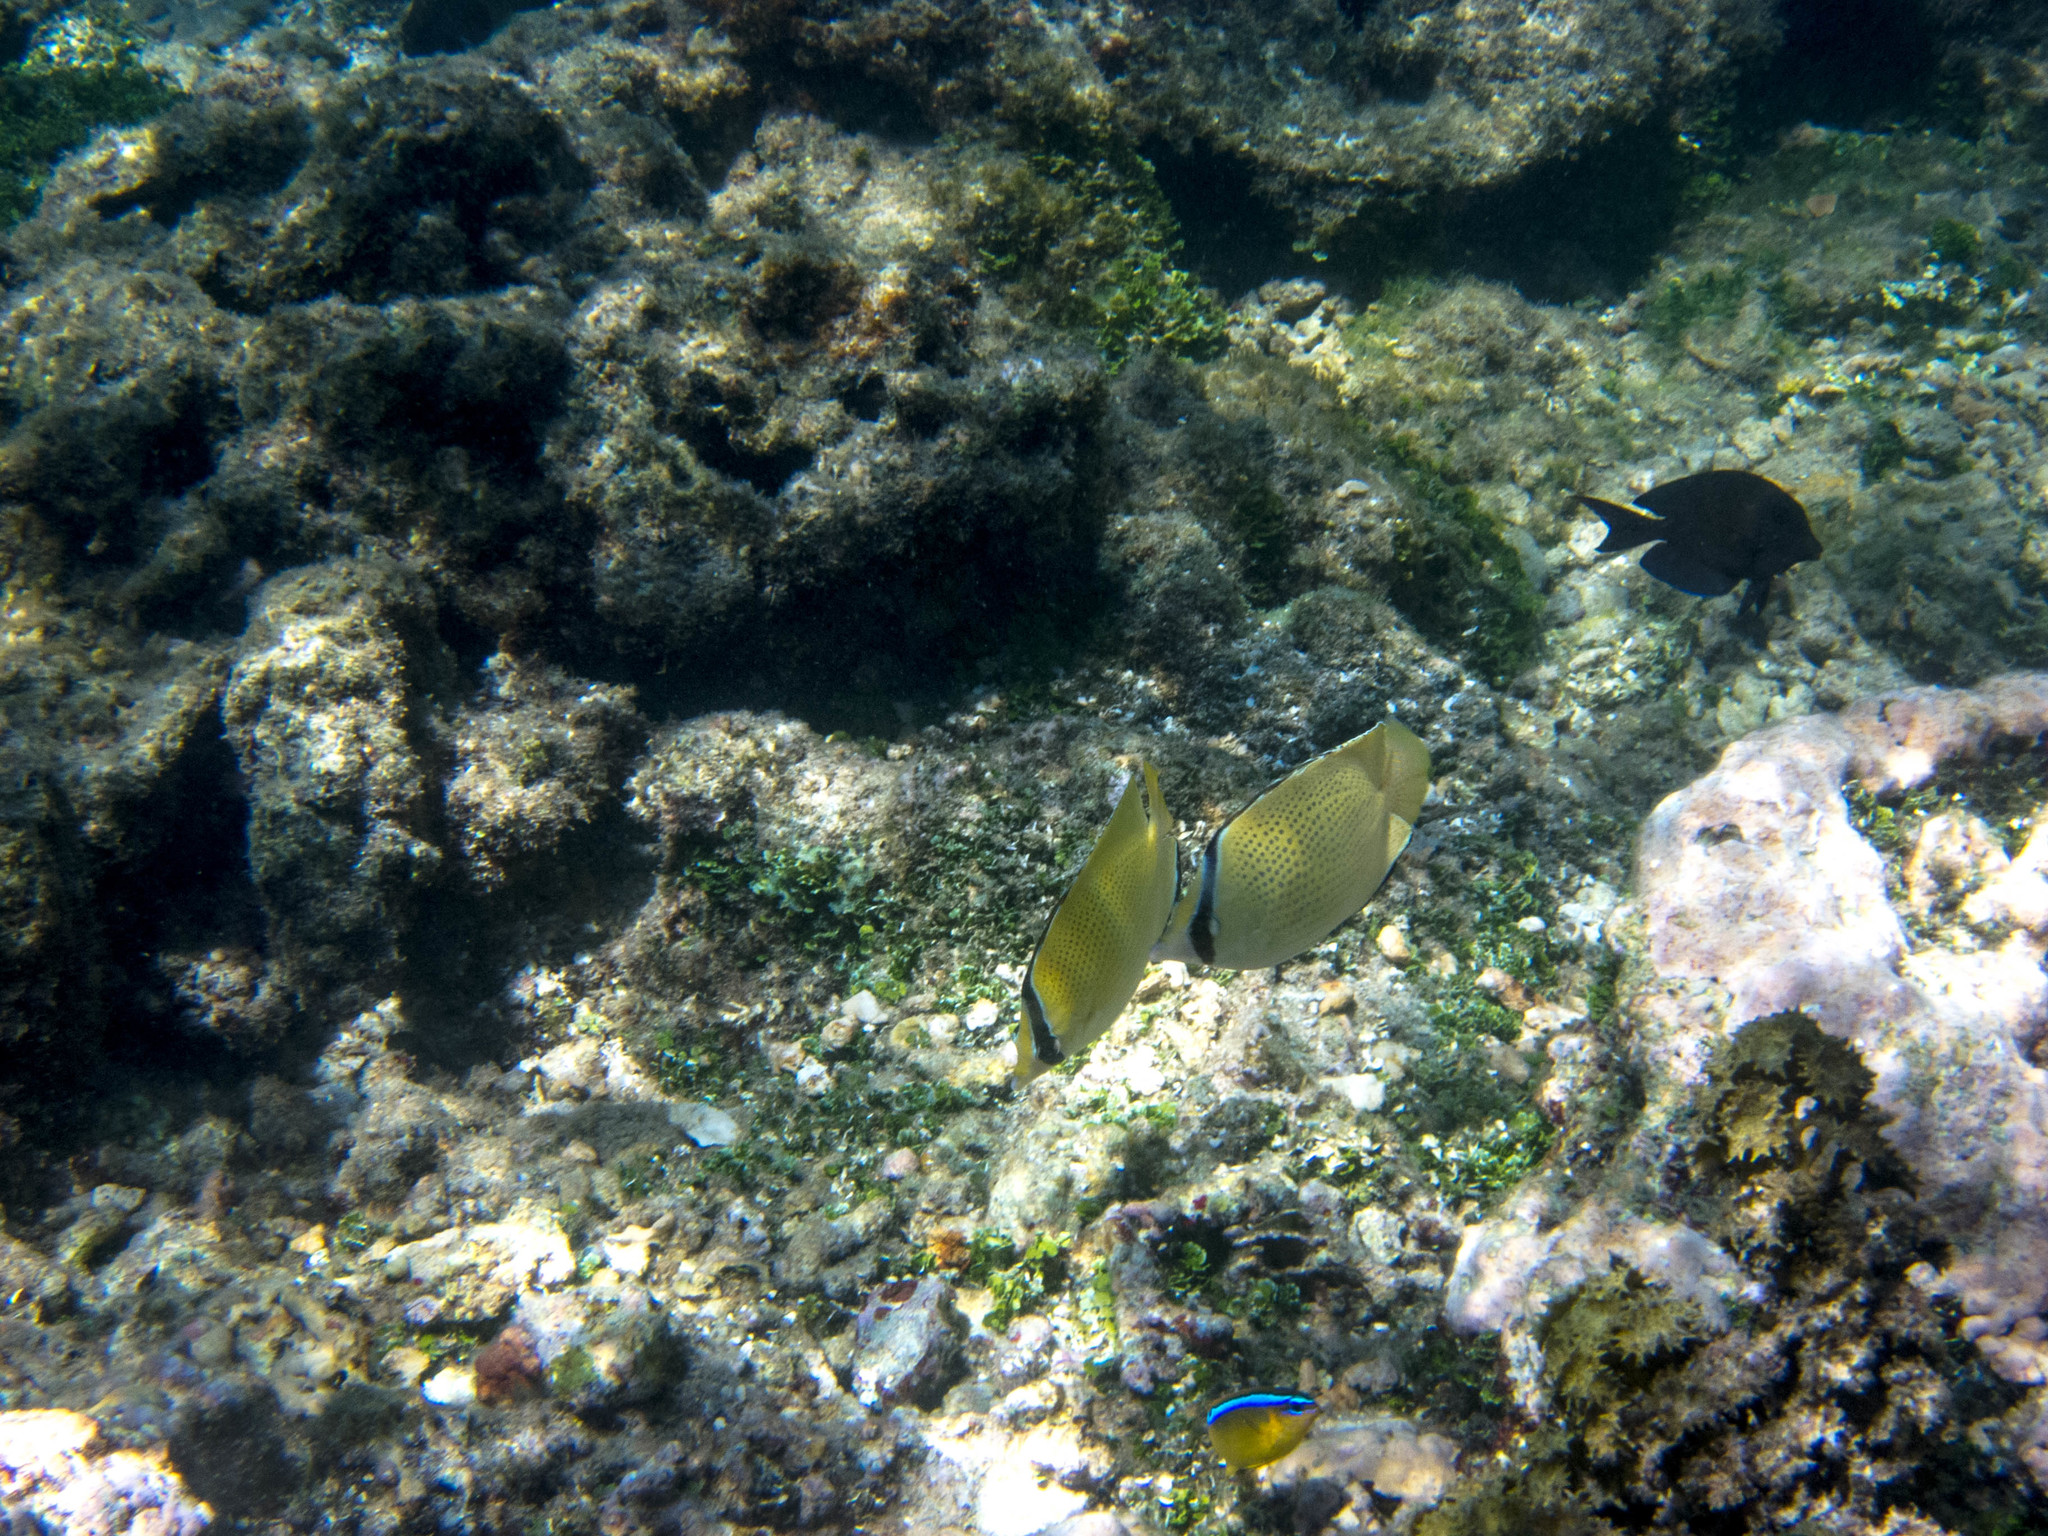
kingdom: Animalia
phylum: Chordata
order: Perciformes
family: Chaetodontidae
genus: Chaetodon
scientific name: Chaetodon citrinellus
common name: Speckled butterflyfish
